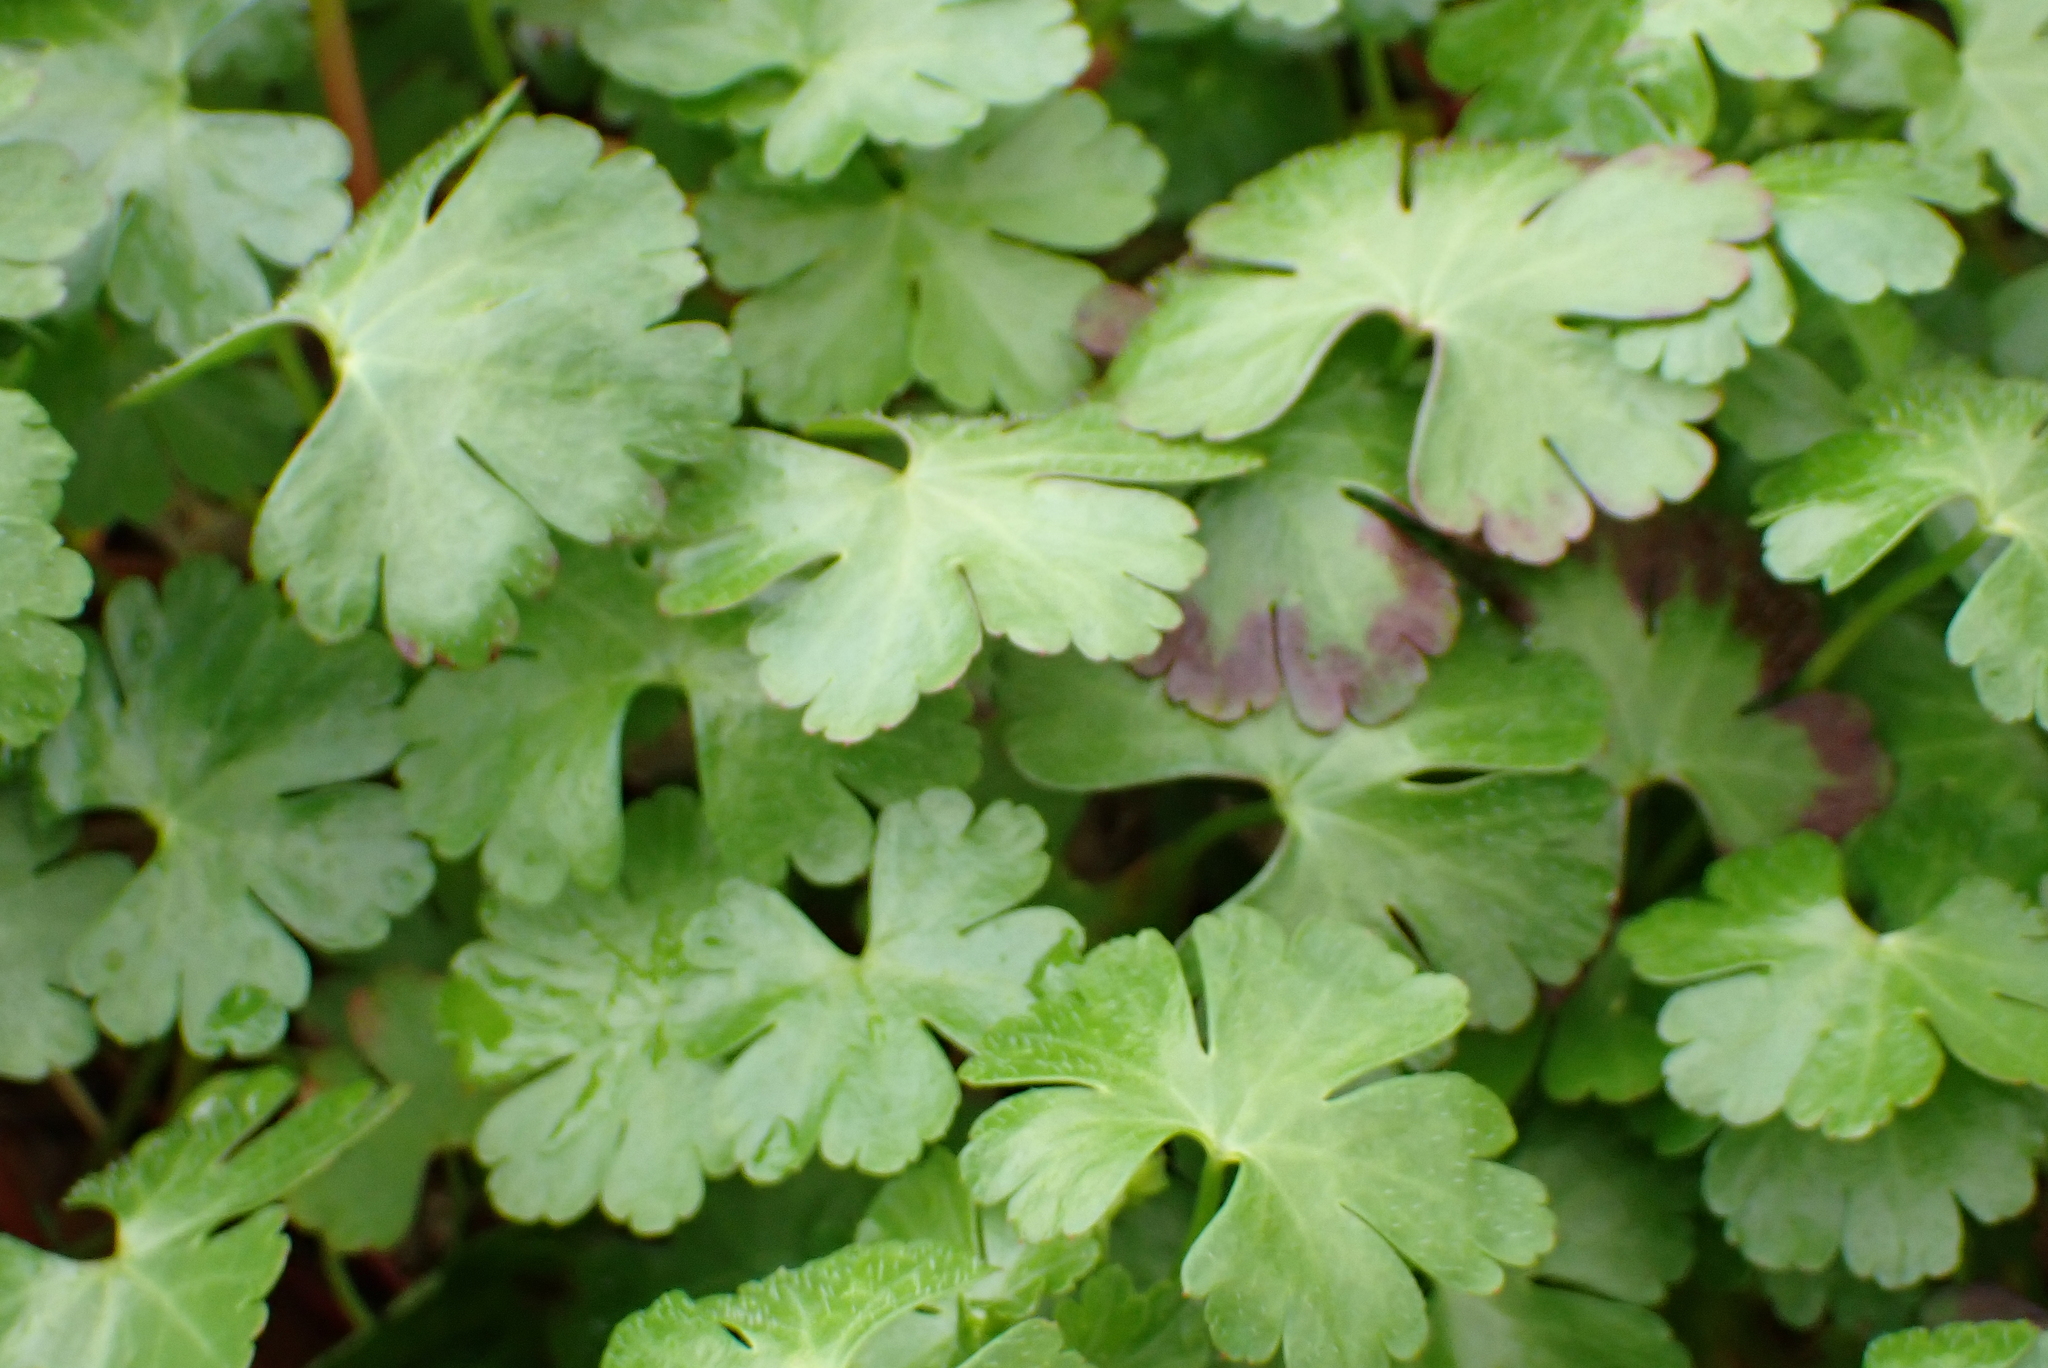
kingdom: Plantae
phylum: Tracheophyta
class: Magnoliopsida
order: Geraniales
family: Geraniaceae
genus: Geranium
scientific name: Geranium lucidum
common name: Shining crane's-bill
